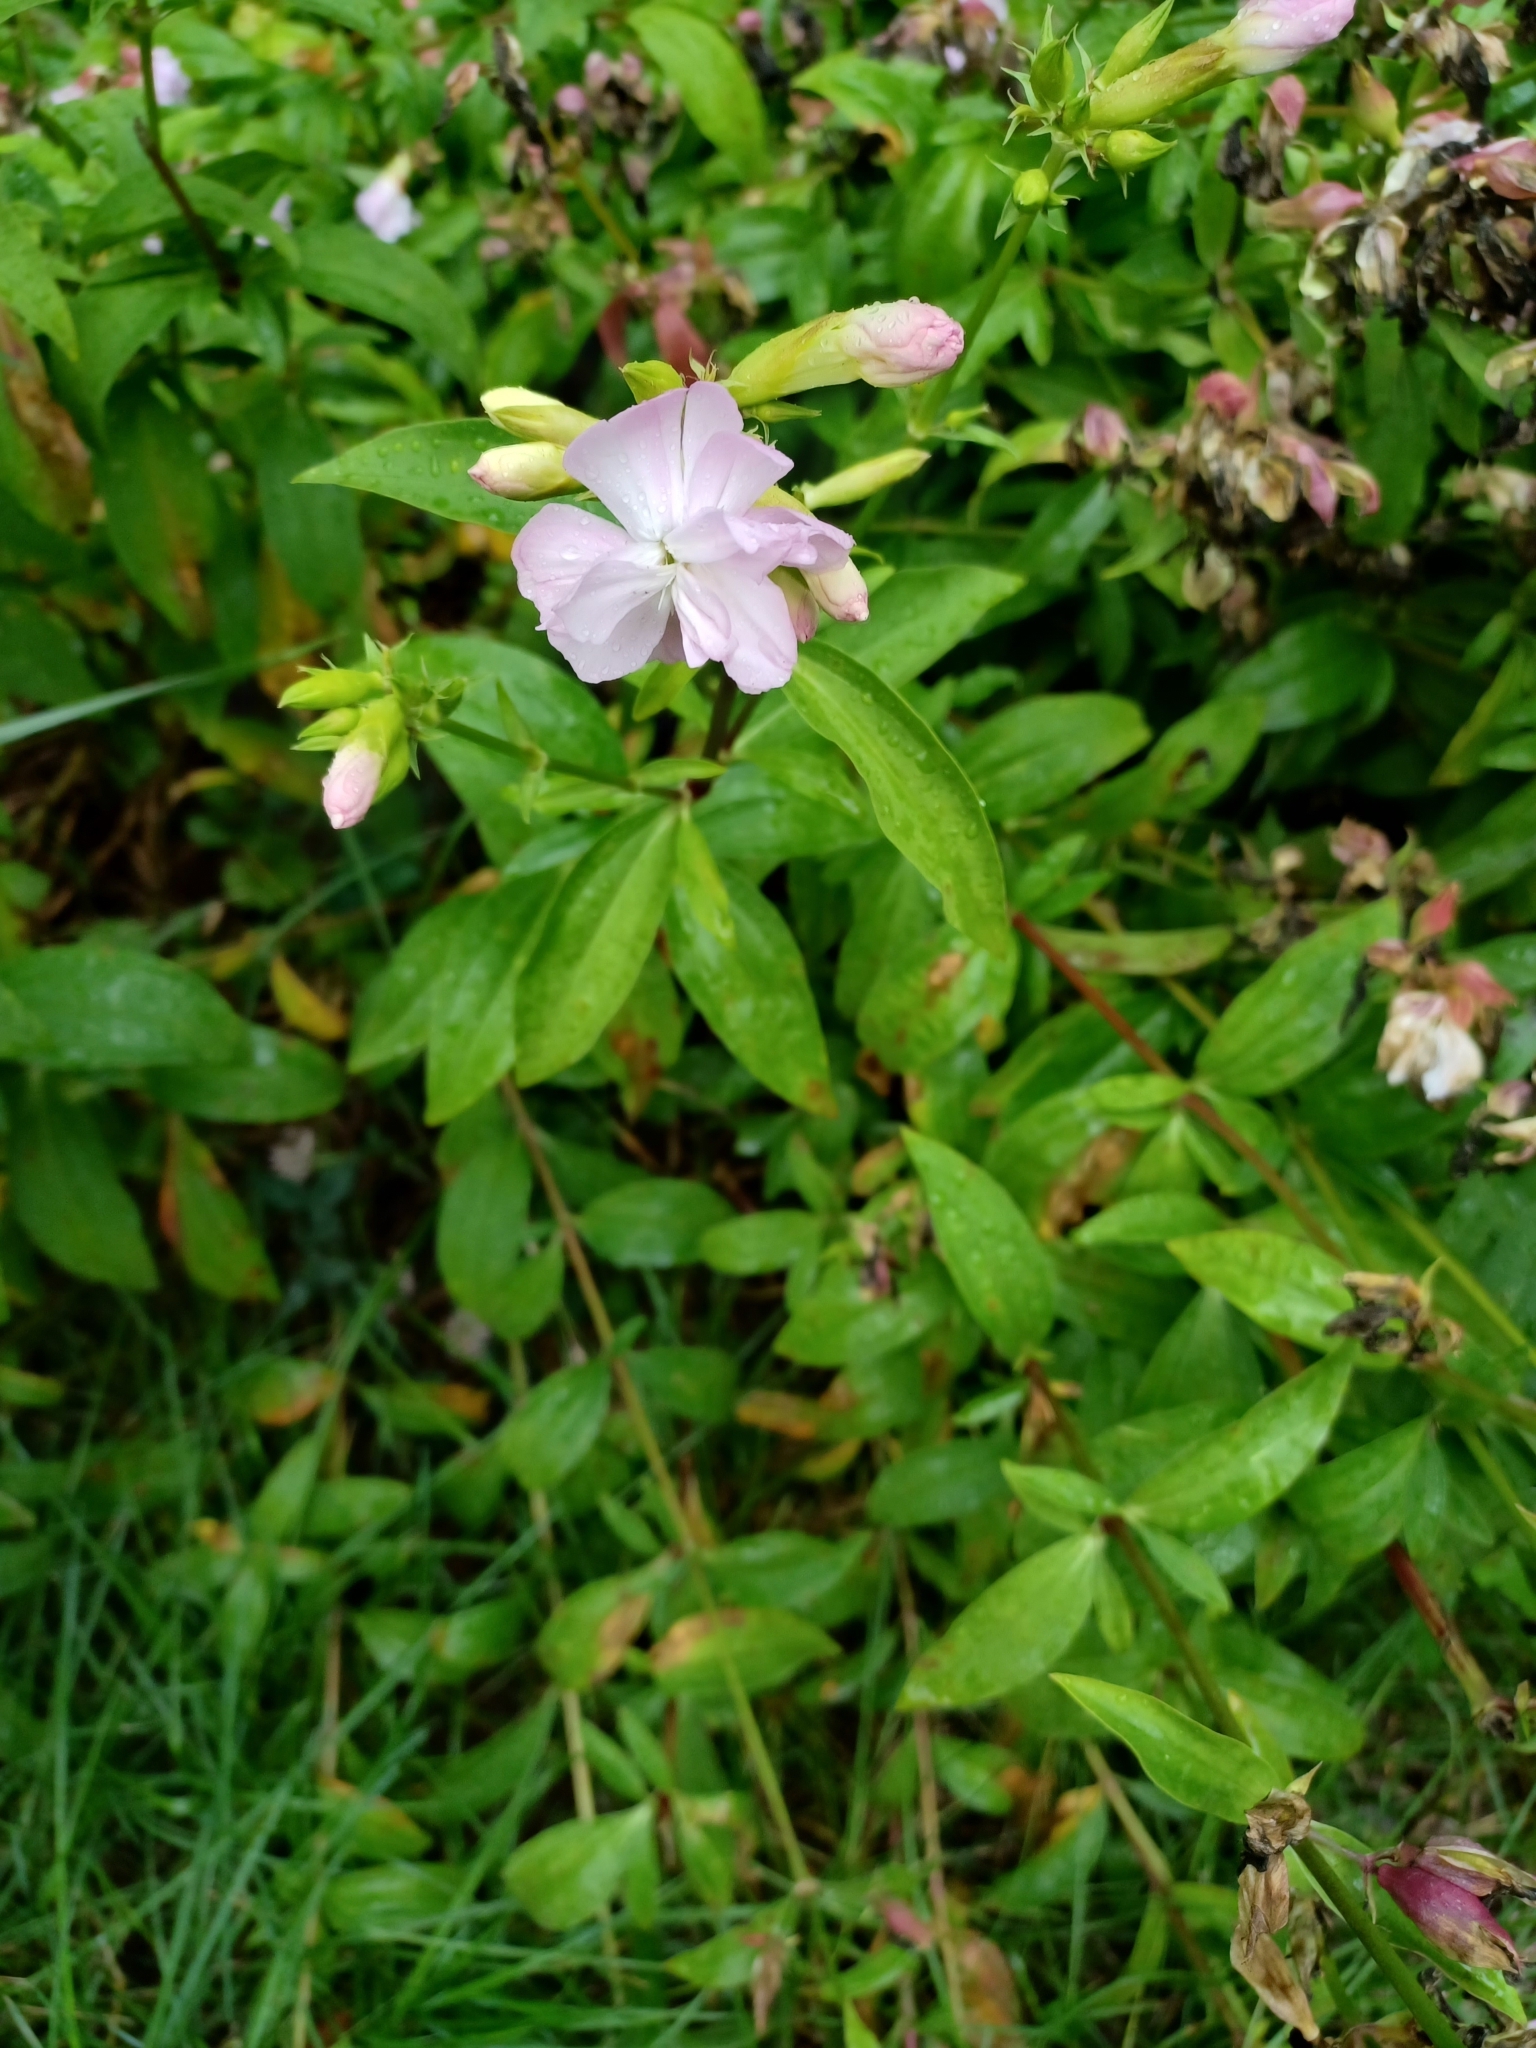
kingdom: Plantae
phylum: Tracheophyta
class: Magnoliopsida
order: Caryophyllales
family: Caryophyllaceae
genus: Saponaria
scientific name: Saponaria officinalis
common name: Soapwort
